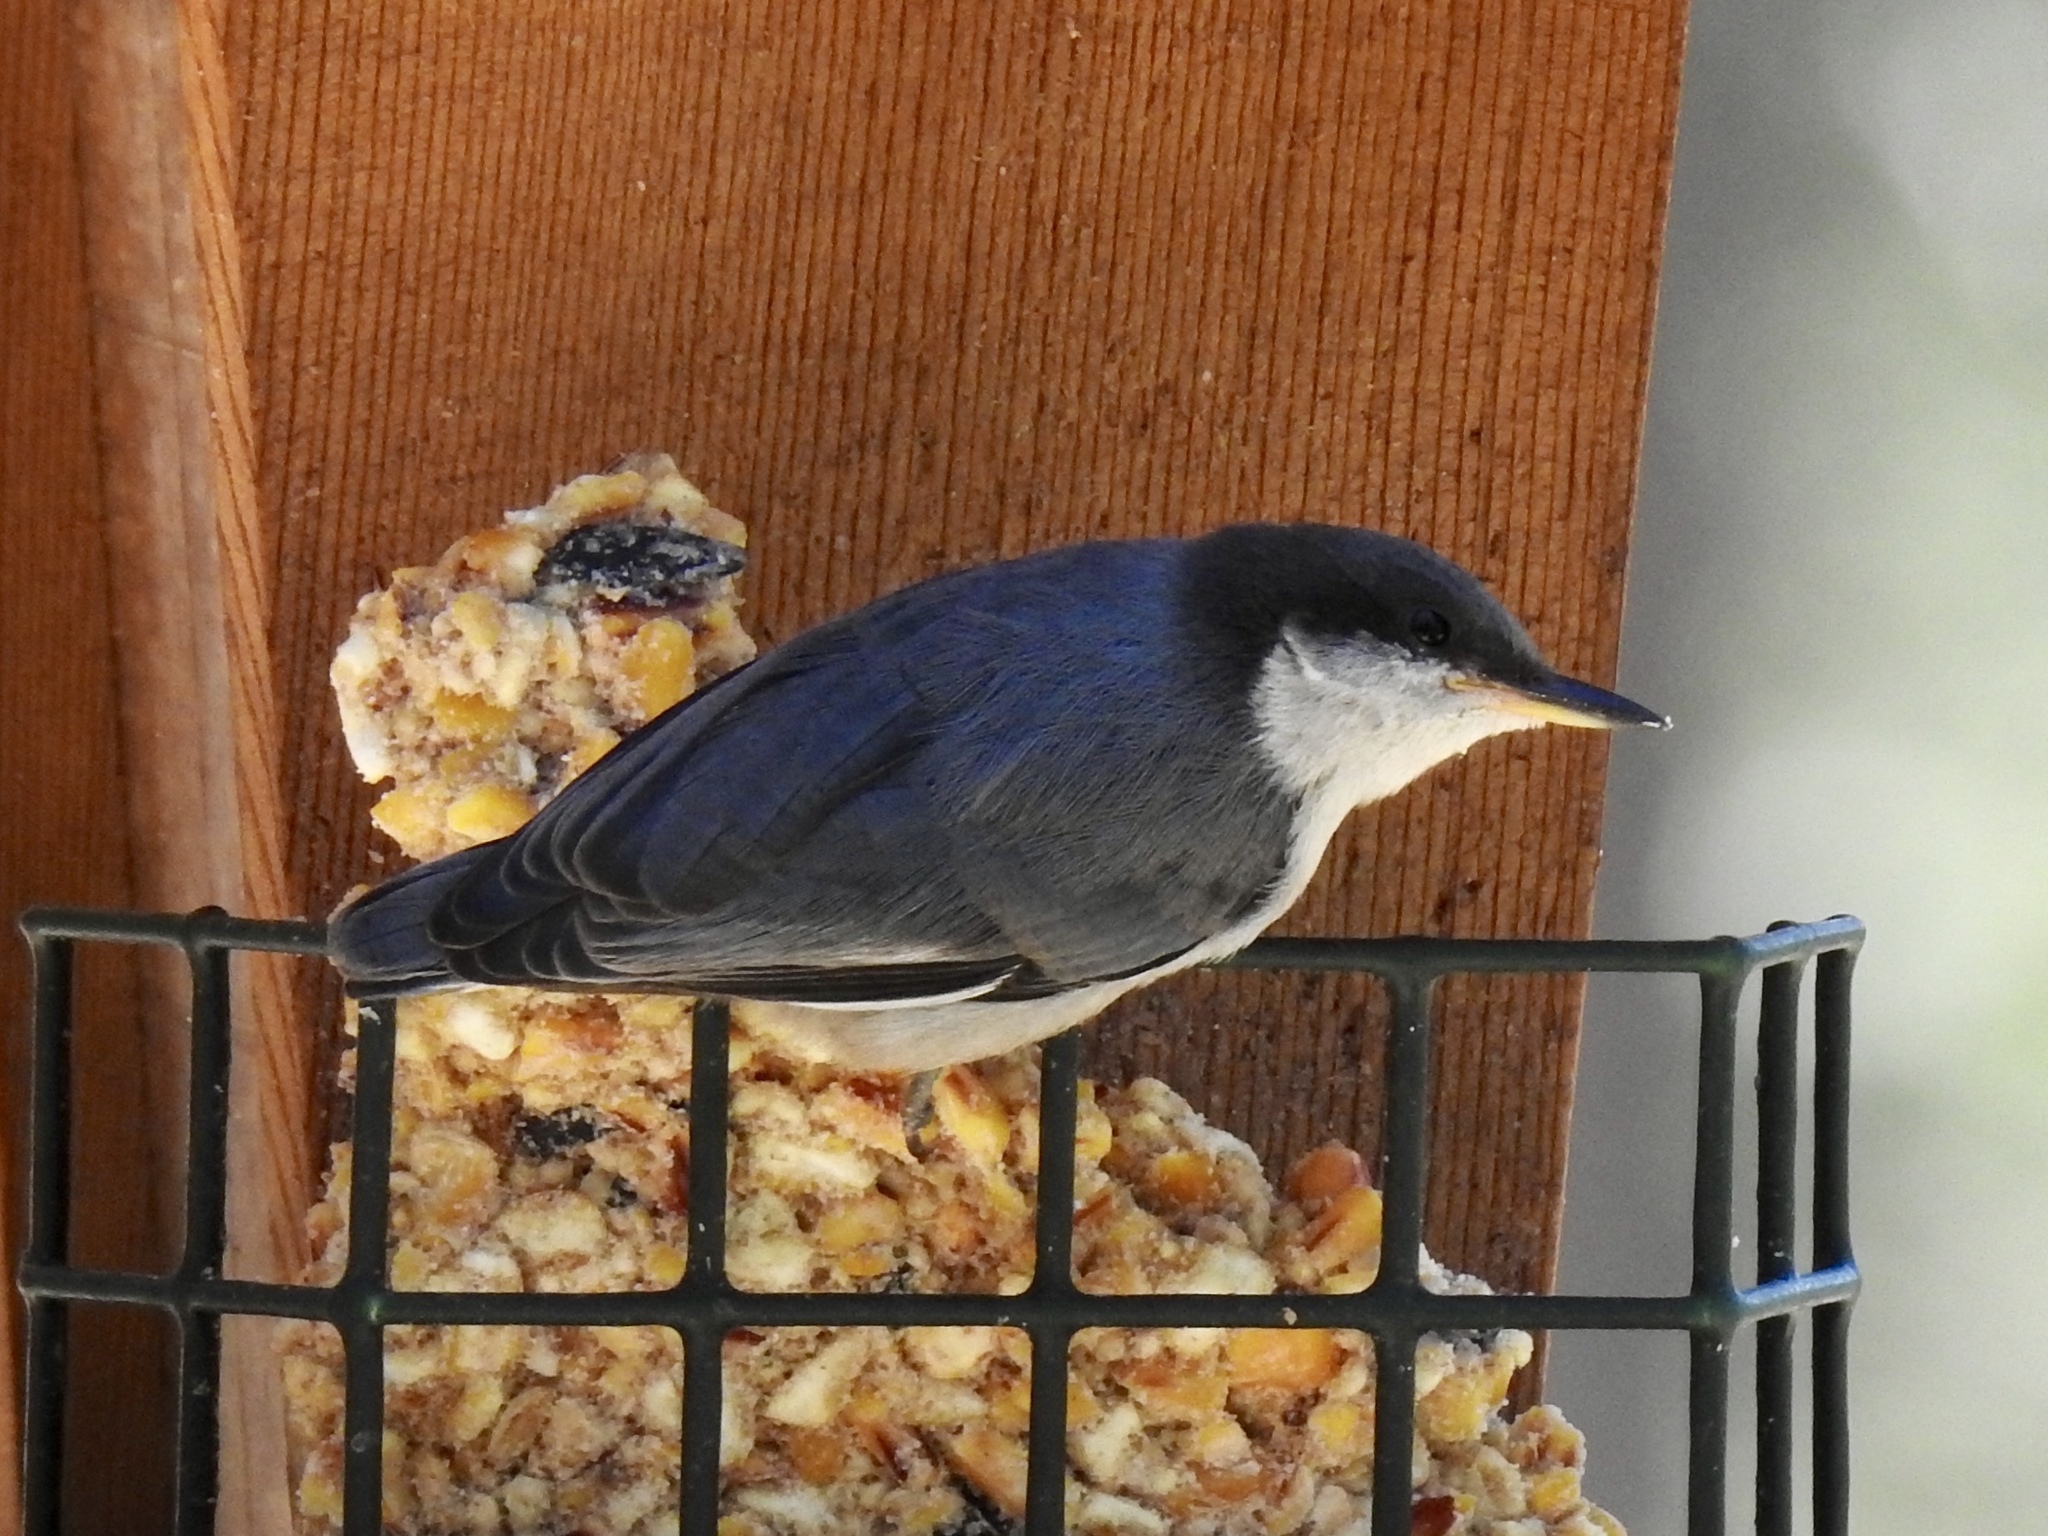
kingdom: Animalia
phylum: Chordata
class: Aves
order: Passeriformes
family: Sittidae
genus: Sitta
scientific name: Sitta pygmaea
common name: Pygmy nuthatch
